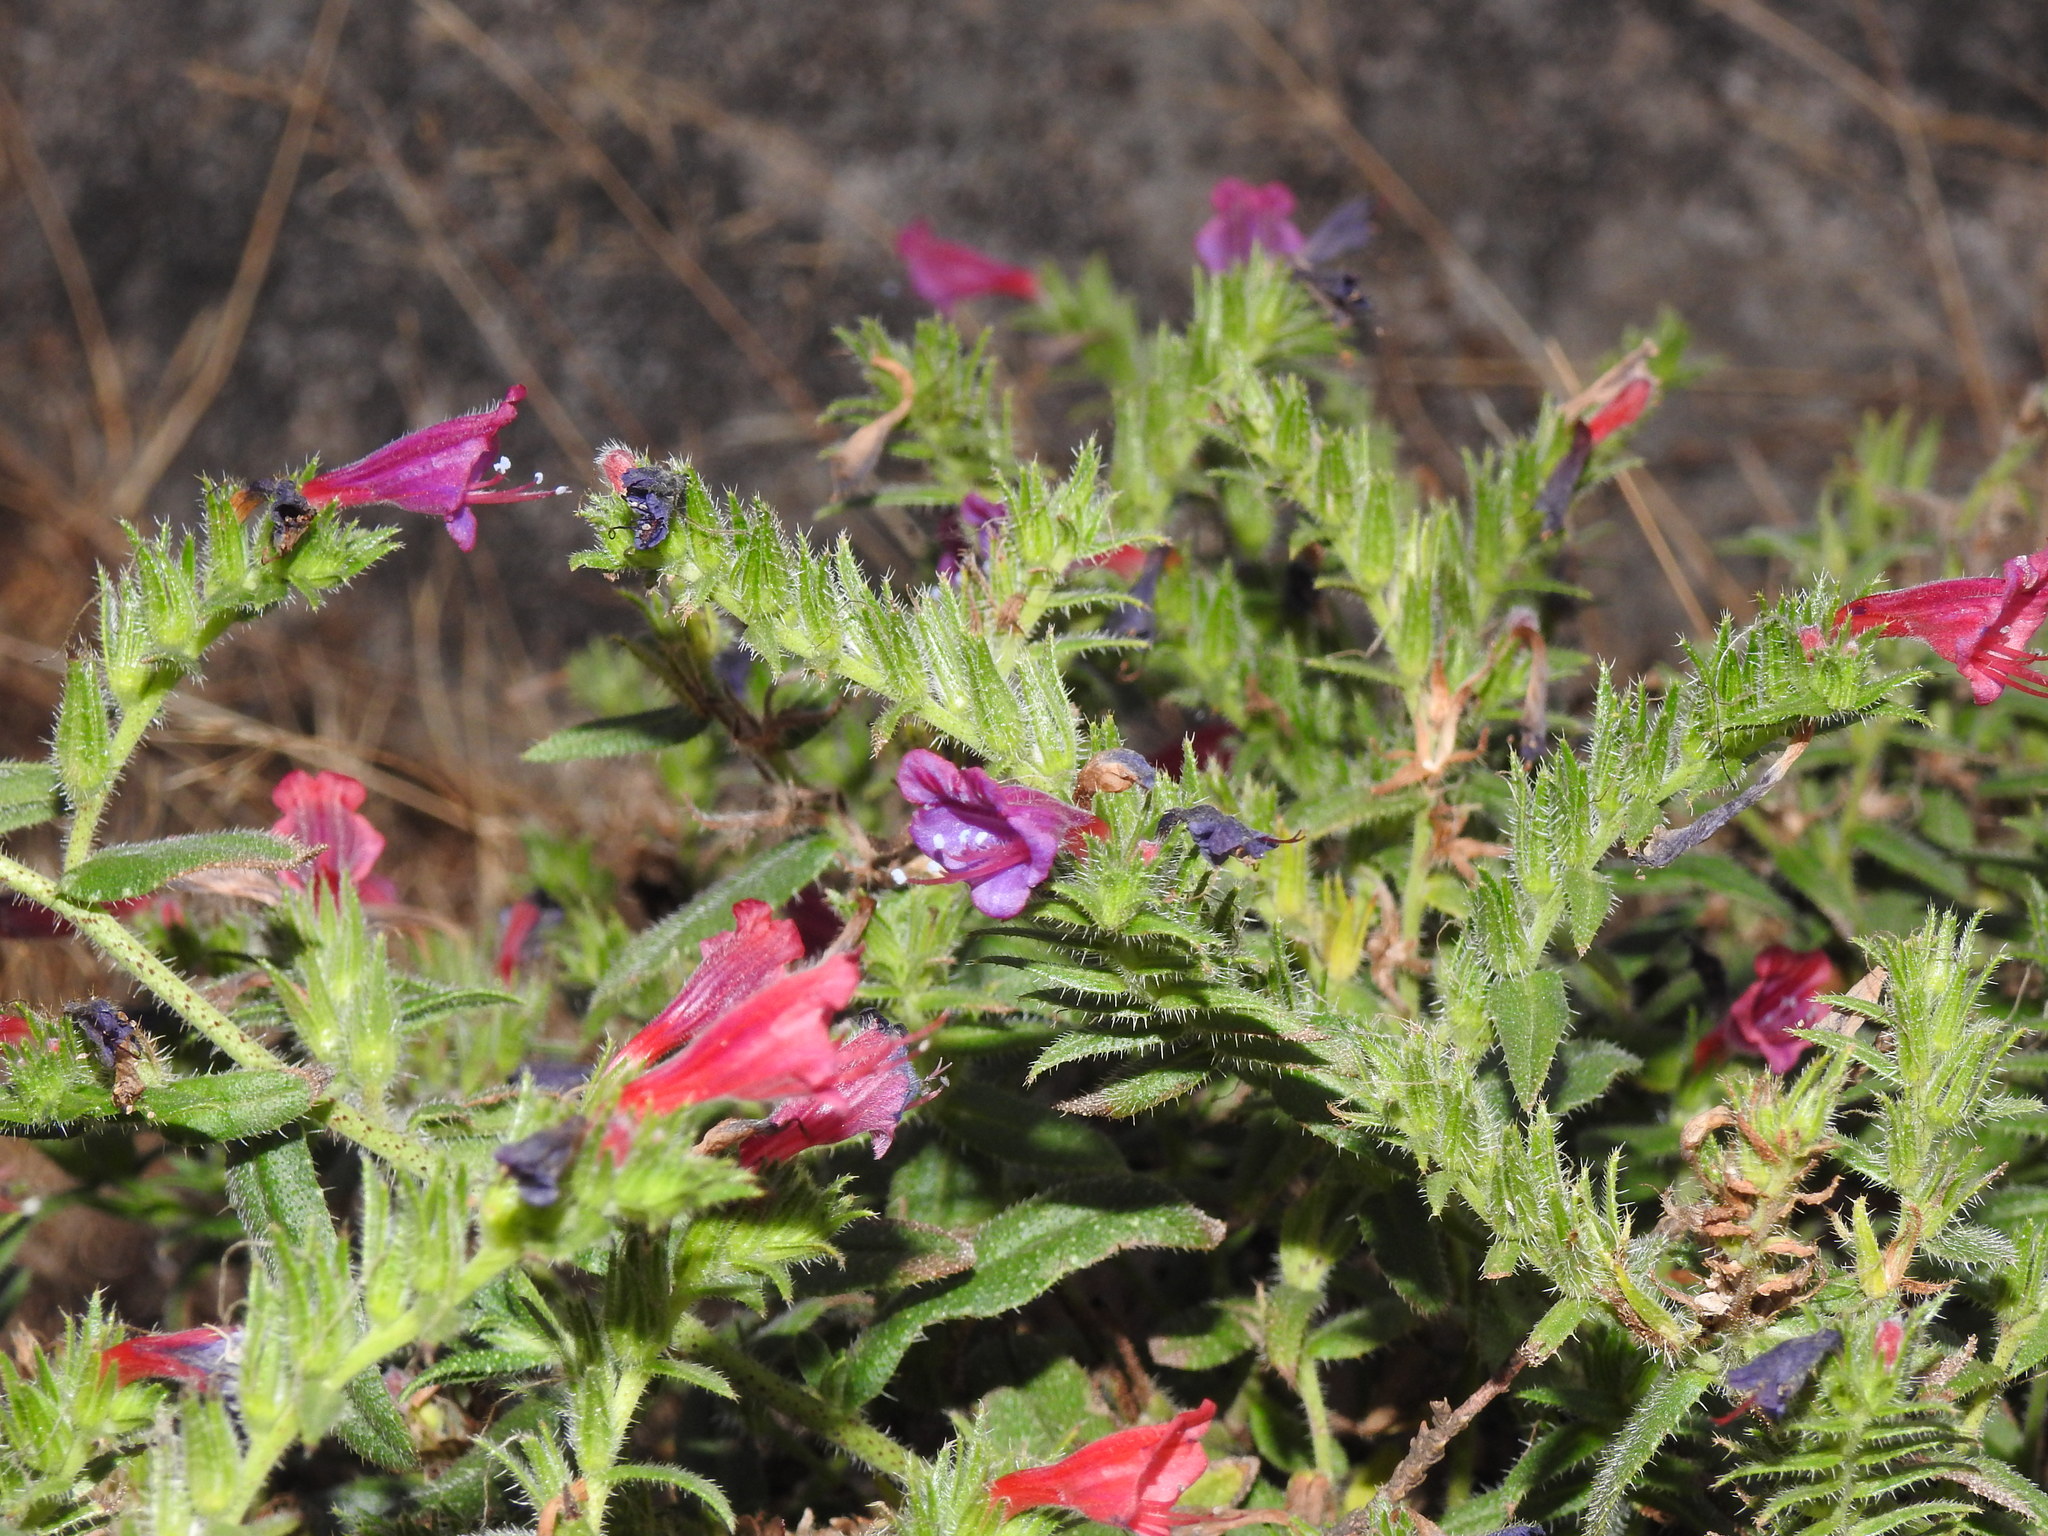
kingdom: Plantae
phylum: Tracheophyta
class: Magnoliopsida
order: Boraginales
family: Boraginaceae
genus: Echium
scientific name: Echium rosulatum
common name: Lax viper's-bugloss
